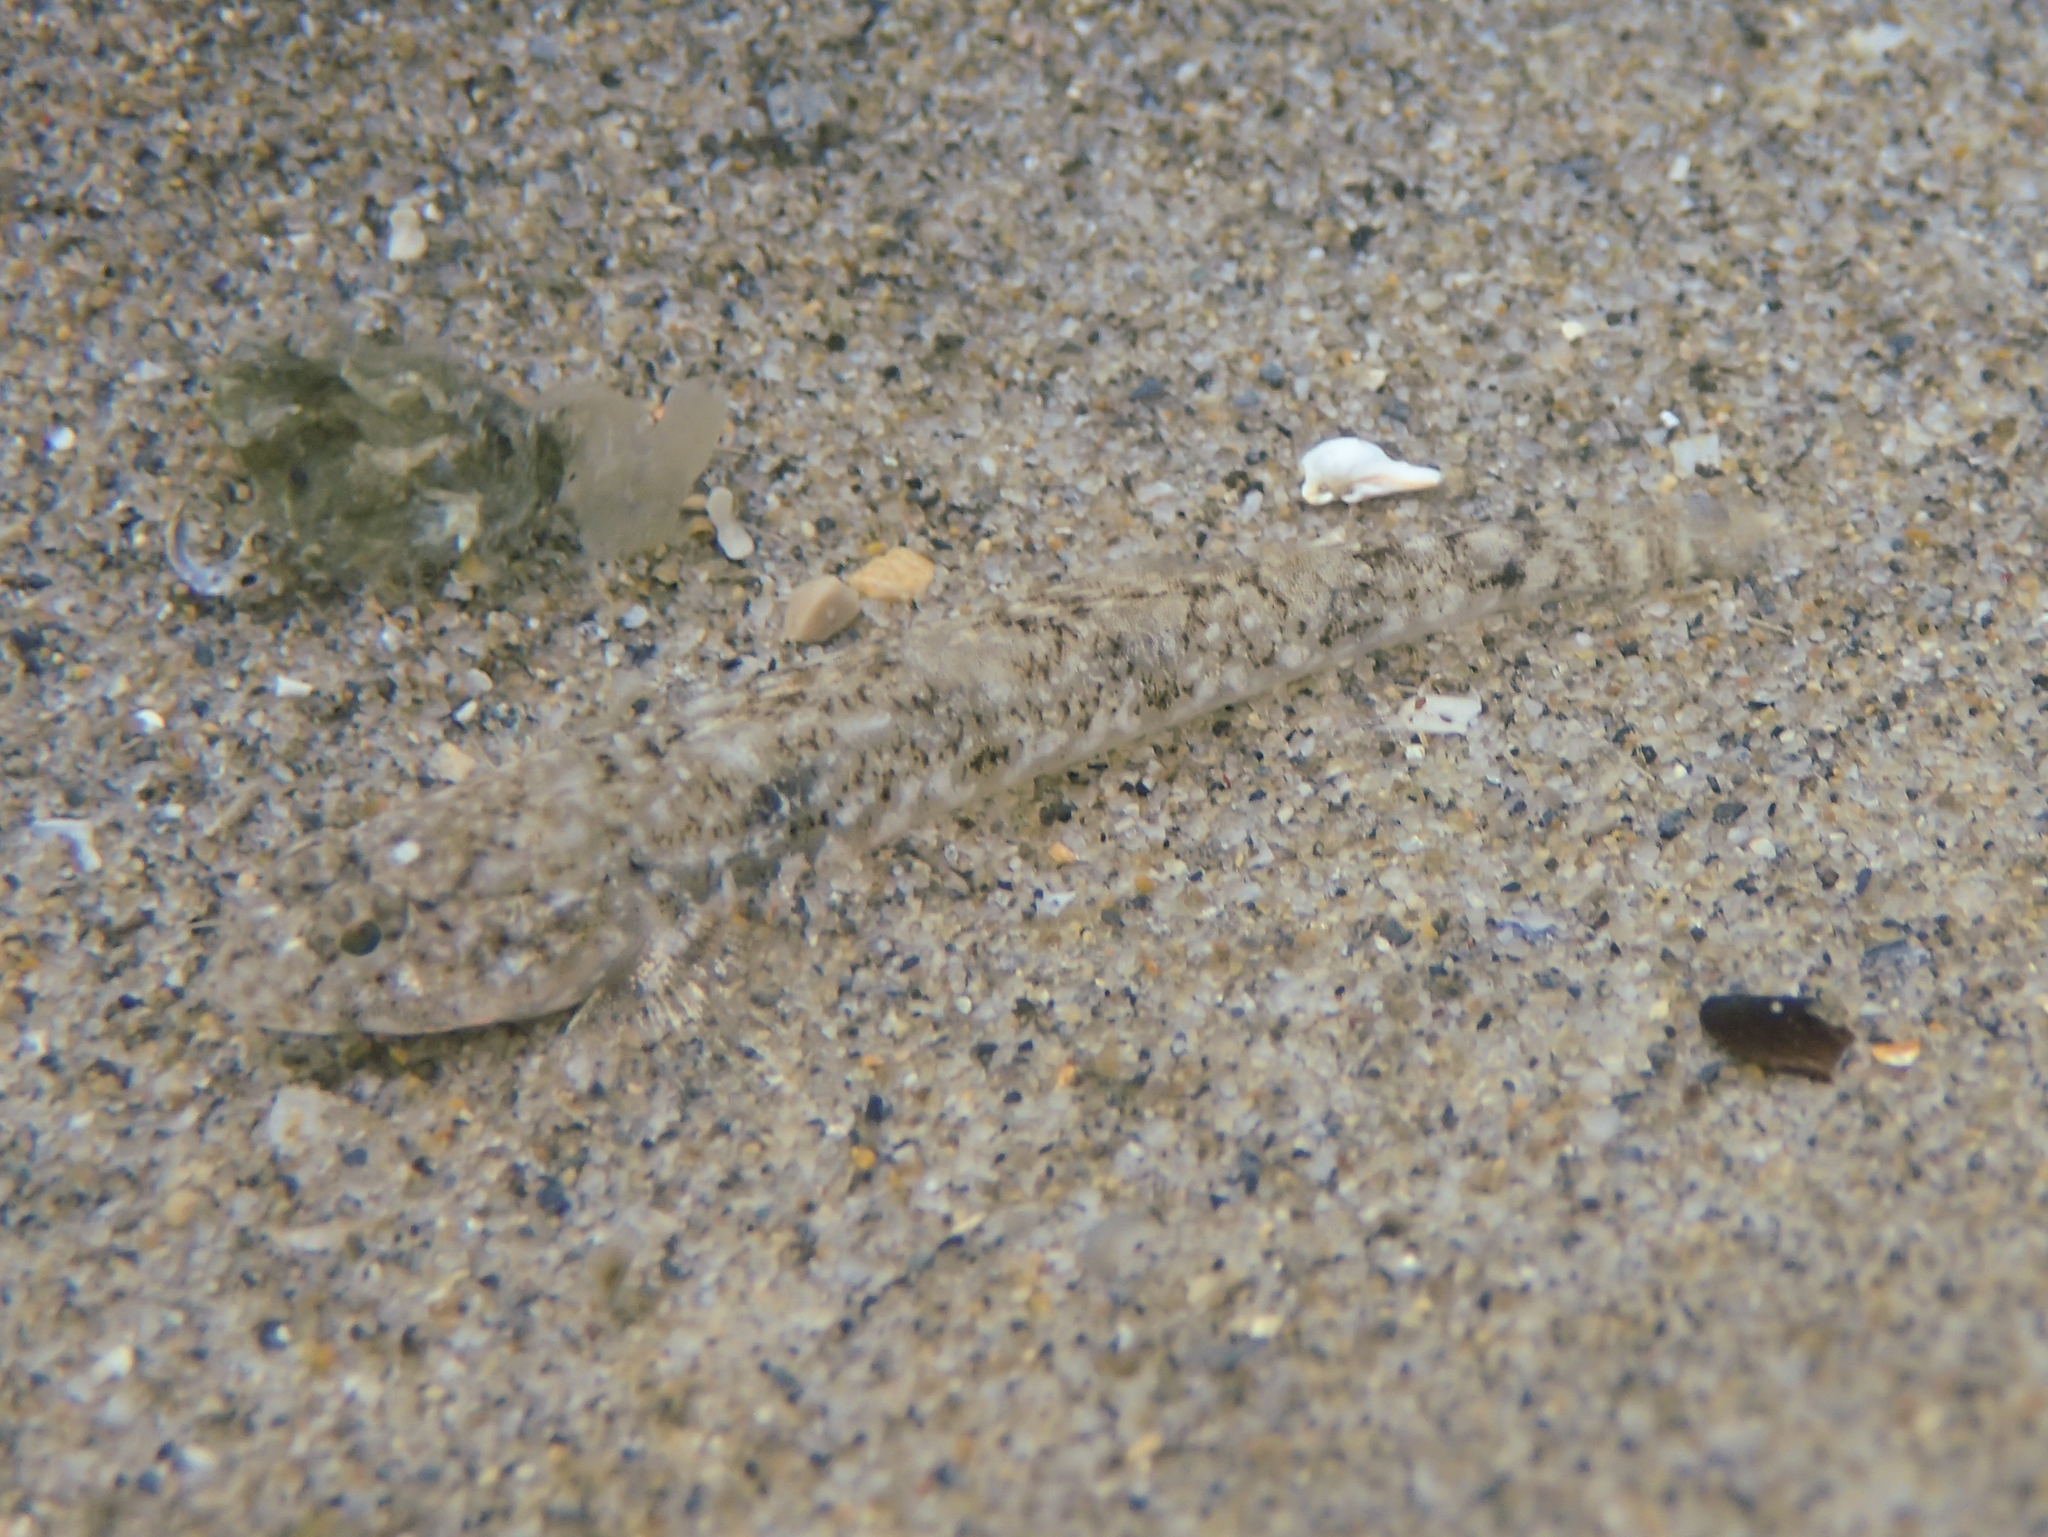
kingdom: Animalia
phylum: Chordata
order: Perciformes
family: Gobiidae
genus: Pomatoschistus
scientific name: Pomatoschistus marmoratus
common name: Marbled goby
